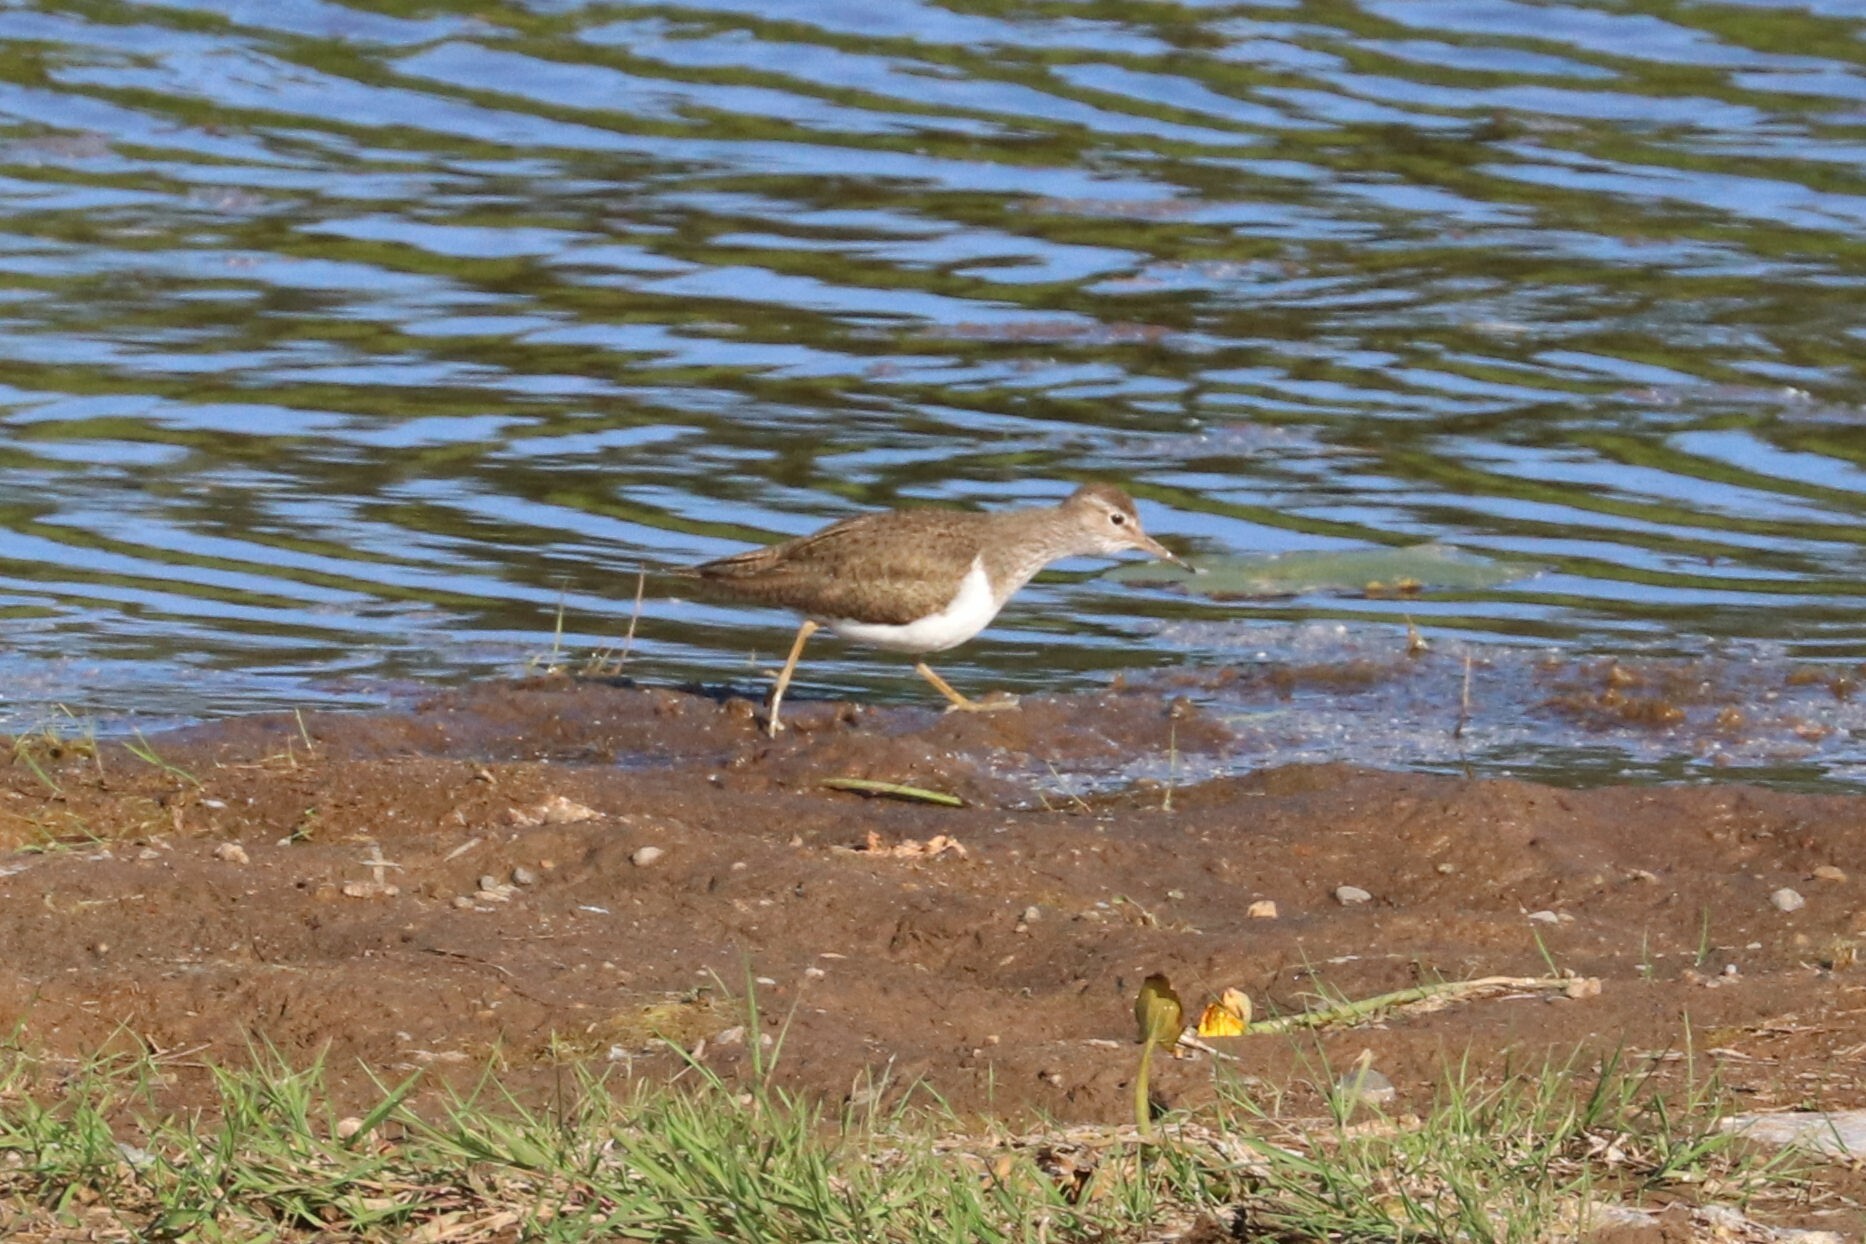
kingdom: Animalia
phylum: Chordata
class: Aves
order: Charadriiformes
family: Scolopacidae
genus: Actitis
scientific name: Actitis hypoleucos
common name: Common sandpiper
